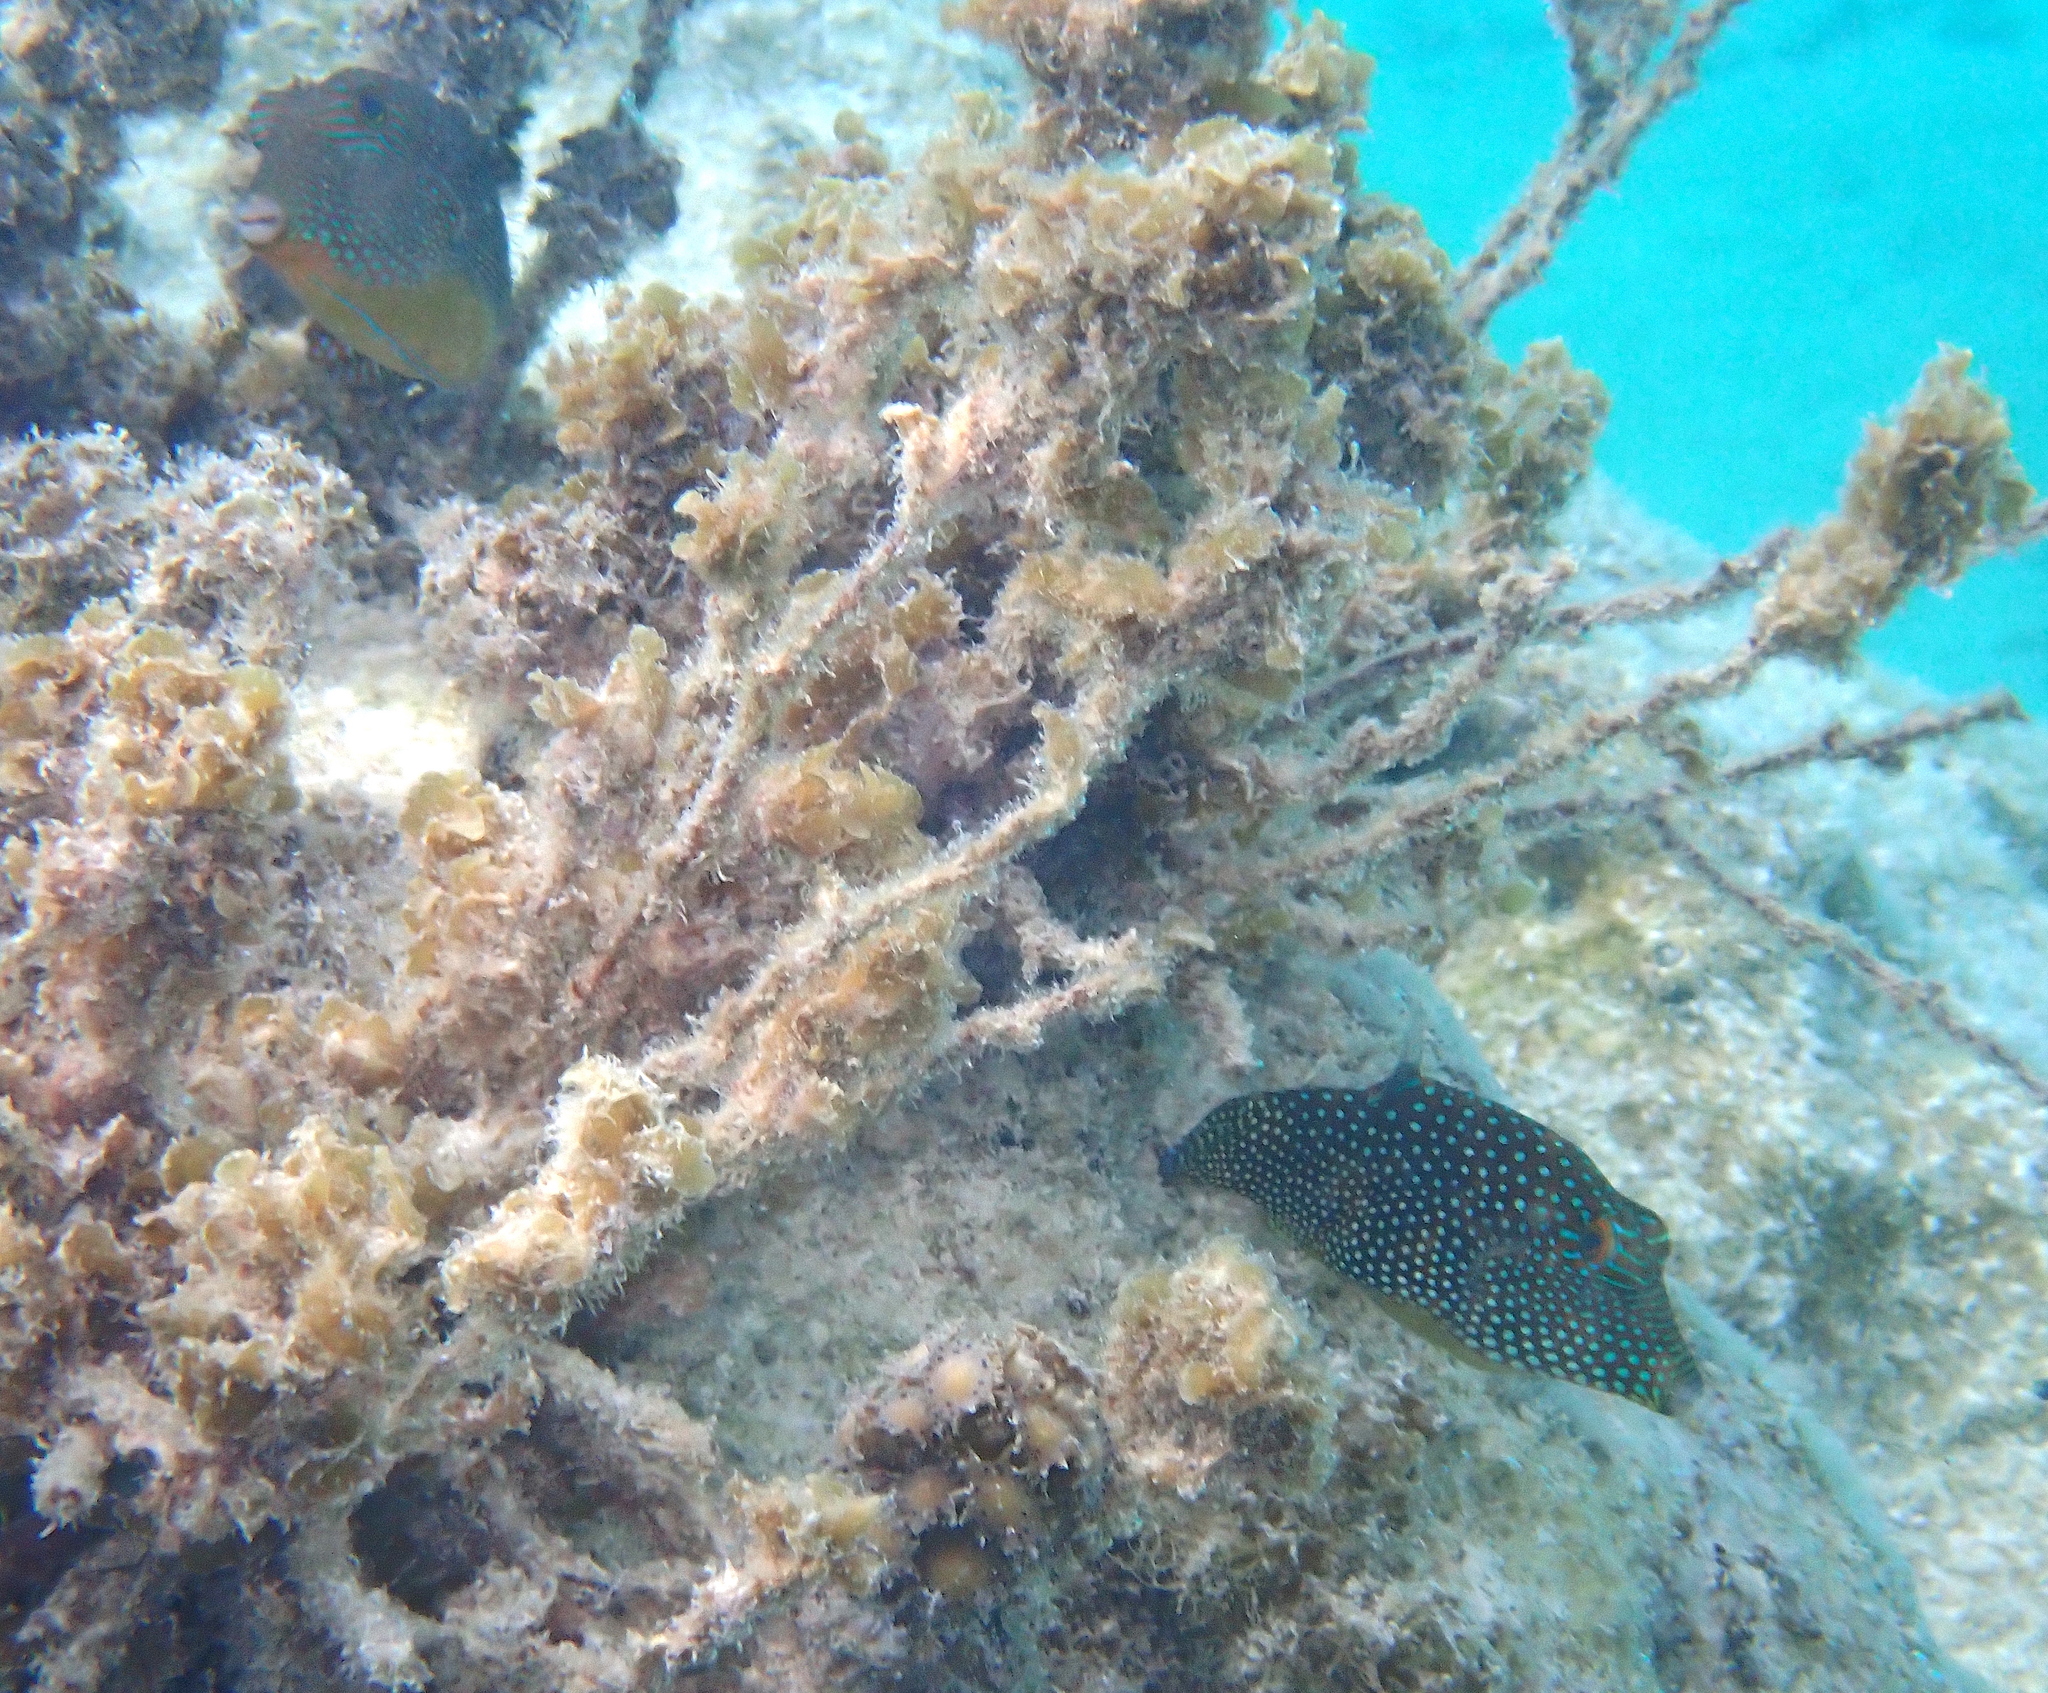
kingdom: Animalia
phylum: Chordata
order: Tetraodontiformes
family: Tetraodontidae
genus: Canthigaster
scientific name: Canthigaster solandri
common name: False-eye toby
